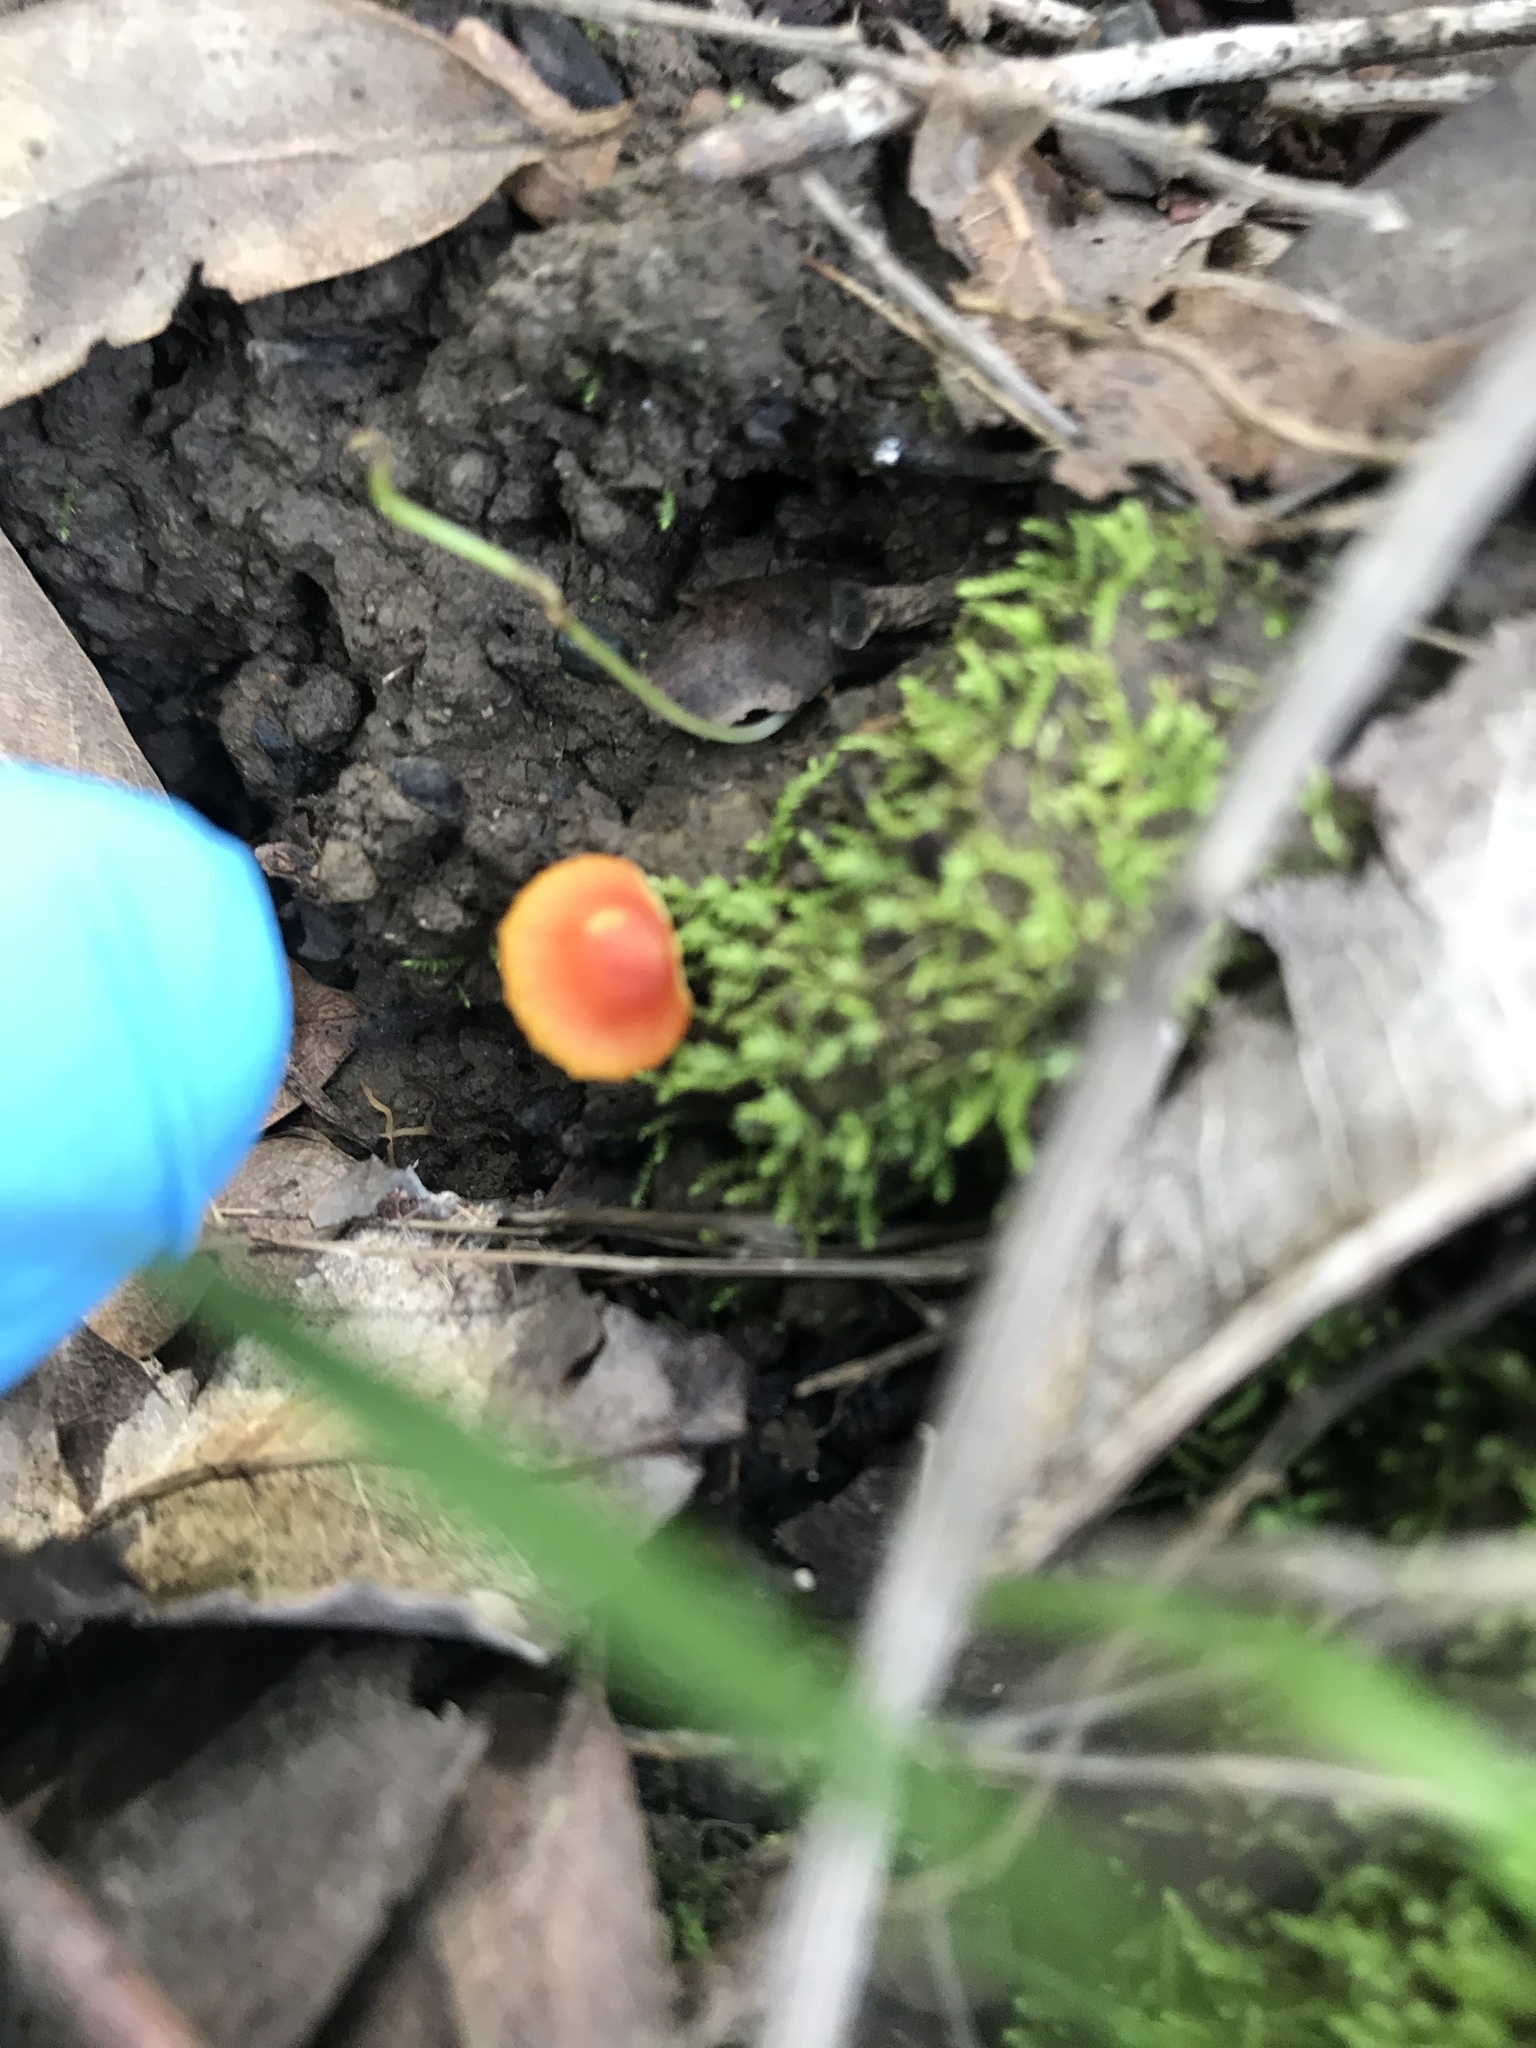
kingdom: Fungi
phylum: Basidiomycota
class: Agaricomycetes
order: Agaricales
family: Mycenaceae
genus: Mycena
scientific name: Mycena acicula
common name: Orange bonnet
